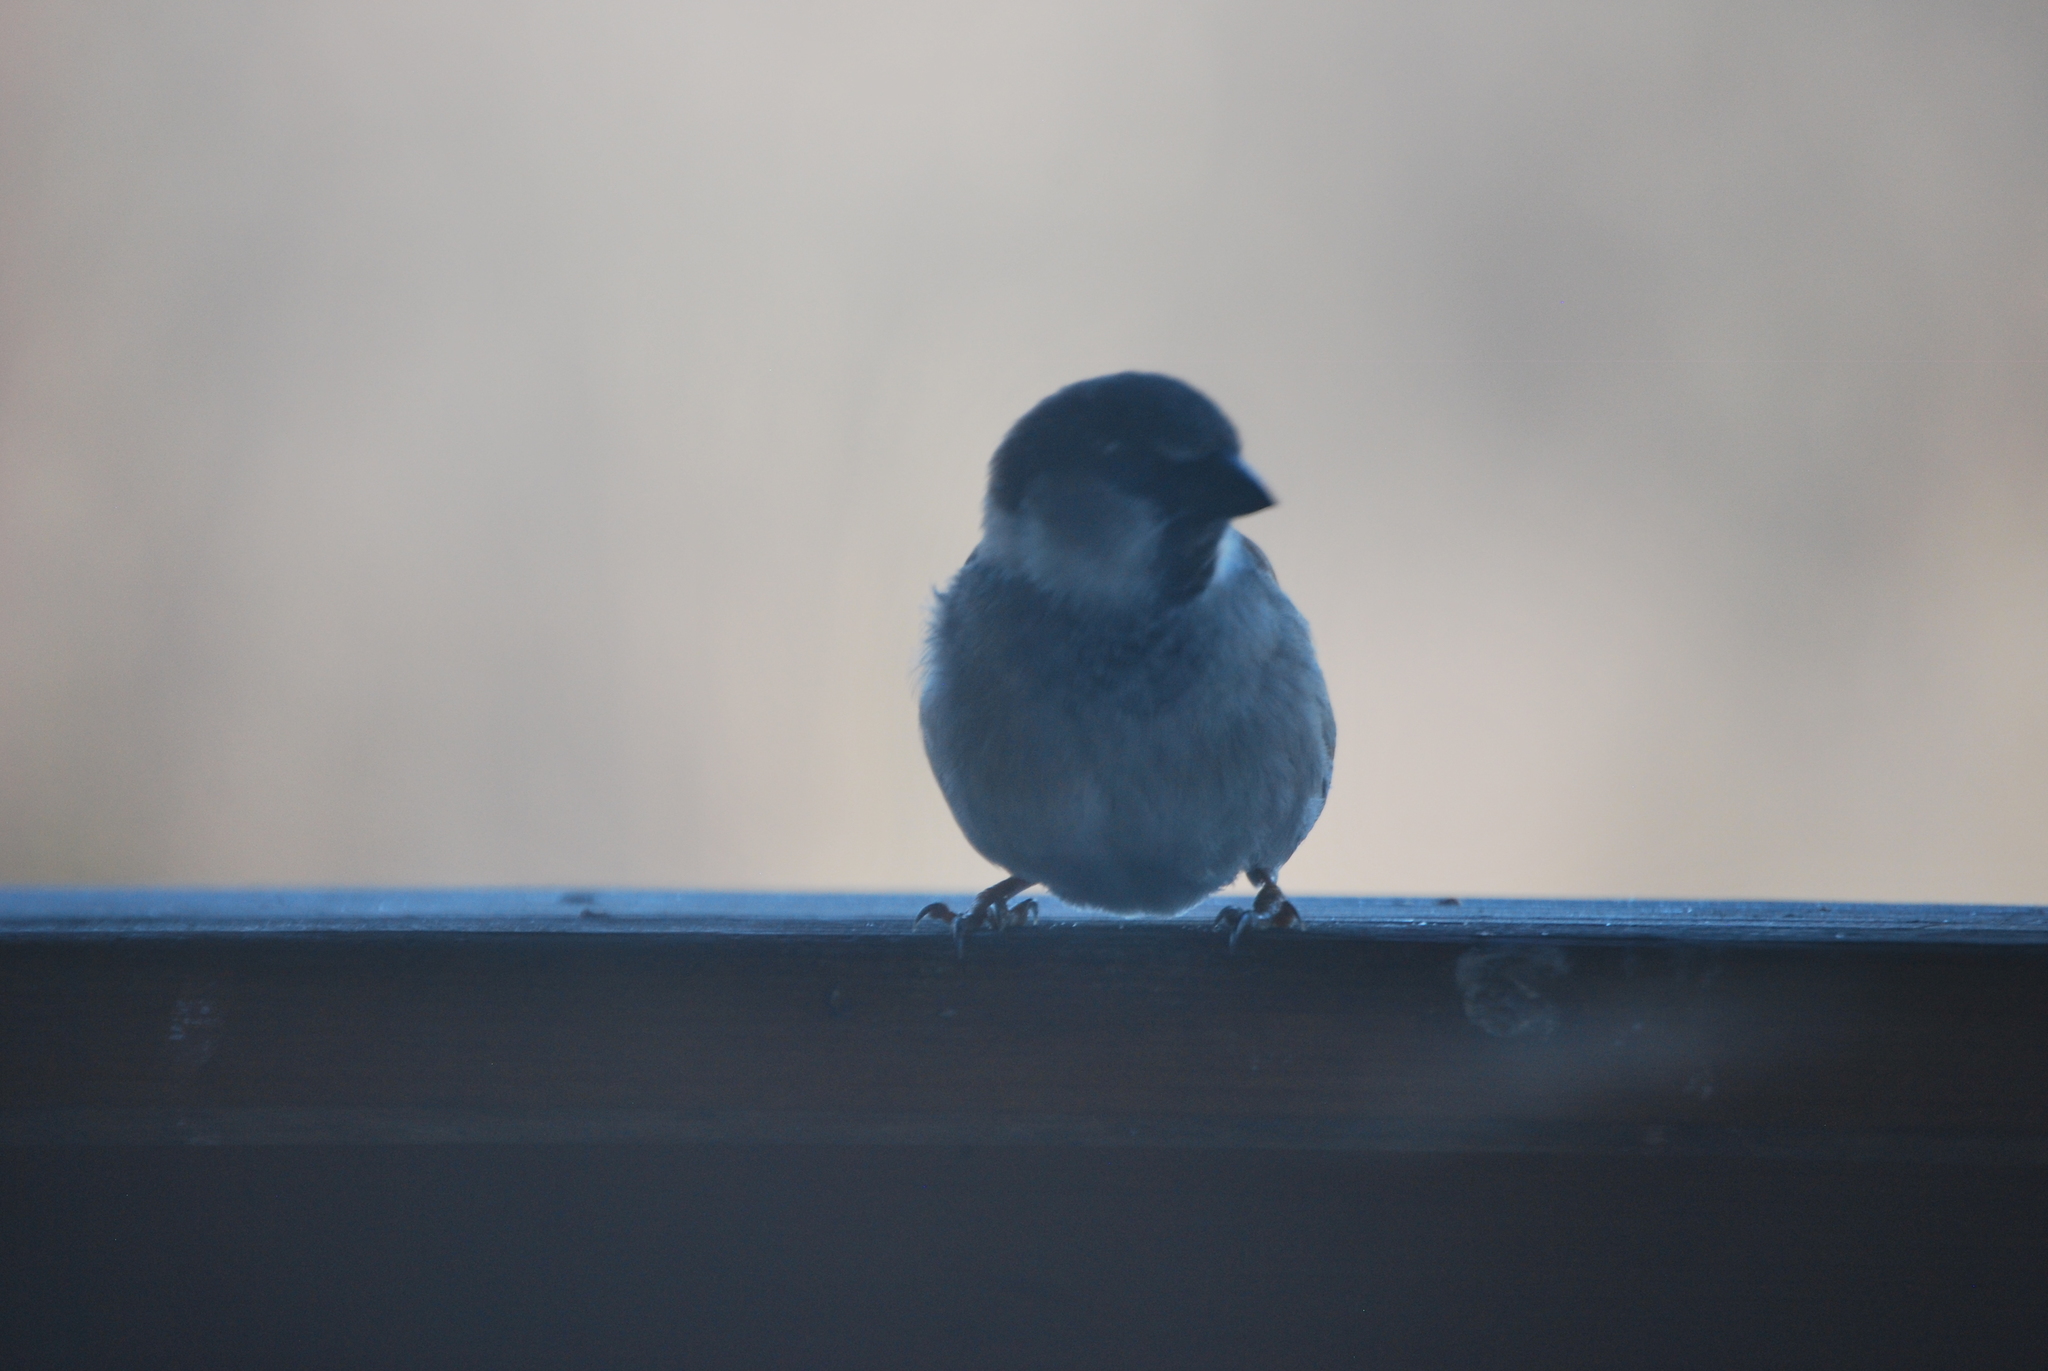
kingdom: Animalia
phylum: Chordata
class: Aves
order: Passeriformes
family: Passeridae
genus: Passer
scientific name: Passer domesticus
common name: House sparrow
